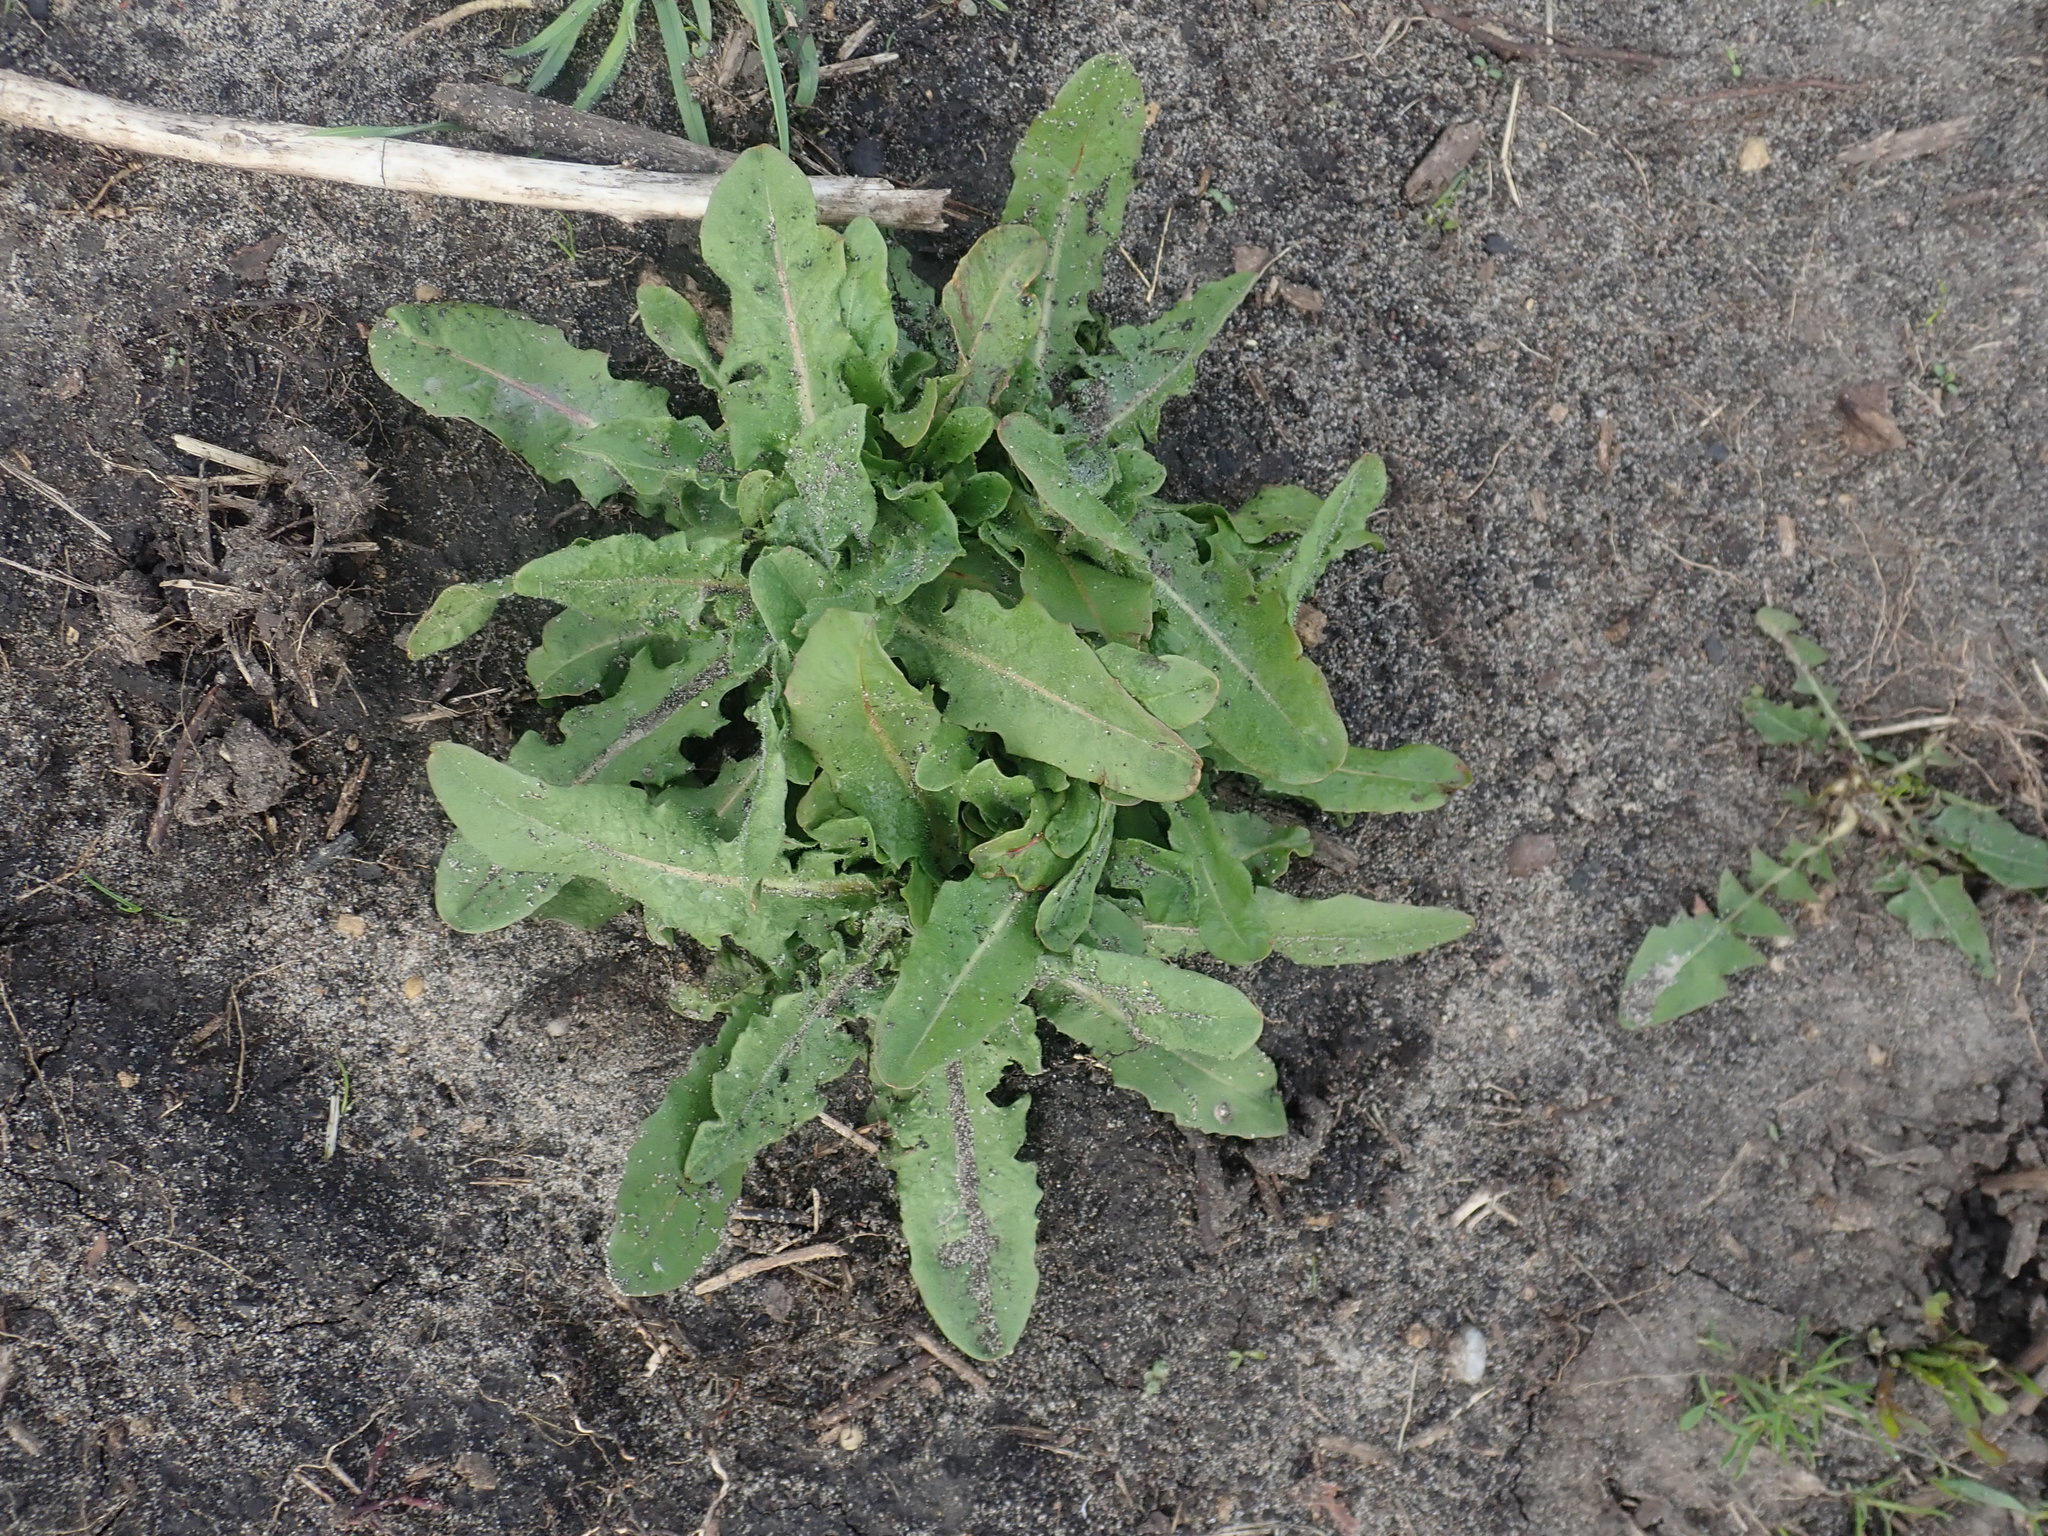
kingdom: Plantae
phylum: Tracheophyta
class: Magnoliopsida
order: Asterales
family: Asteraceae
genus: Taraxacum
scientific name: Taraxacum officinale
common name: Common dandelion
